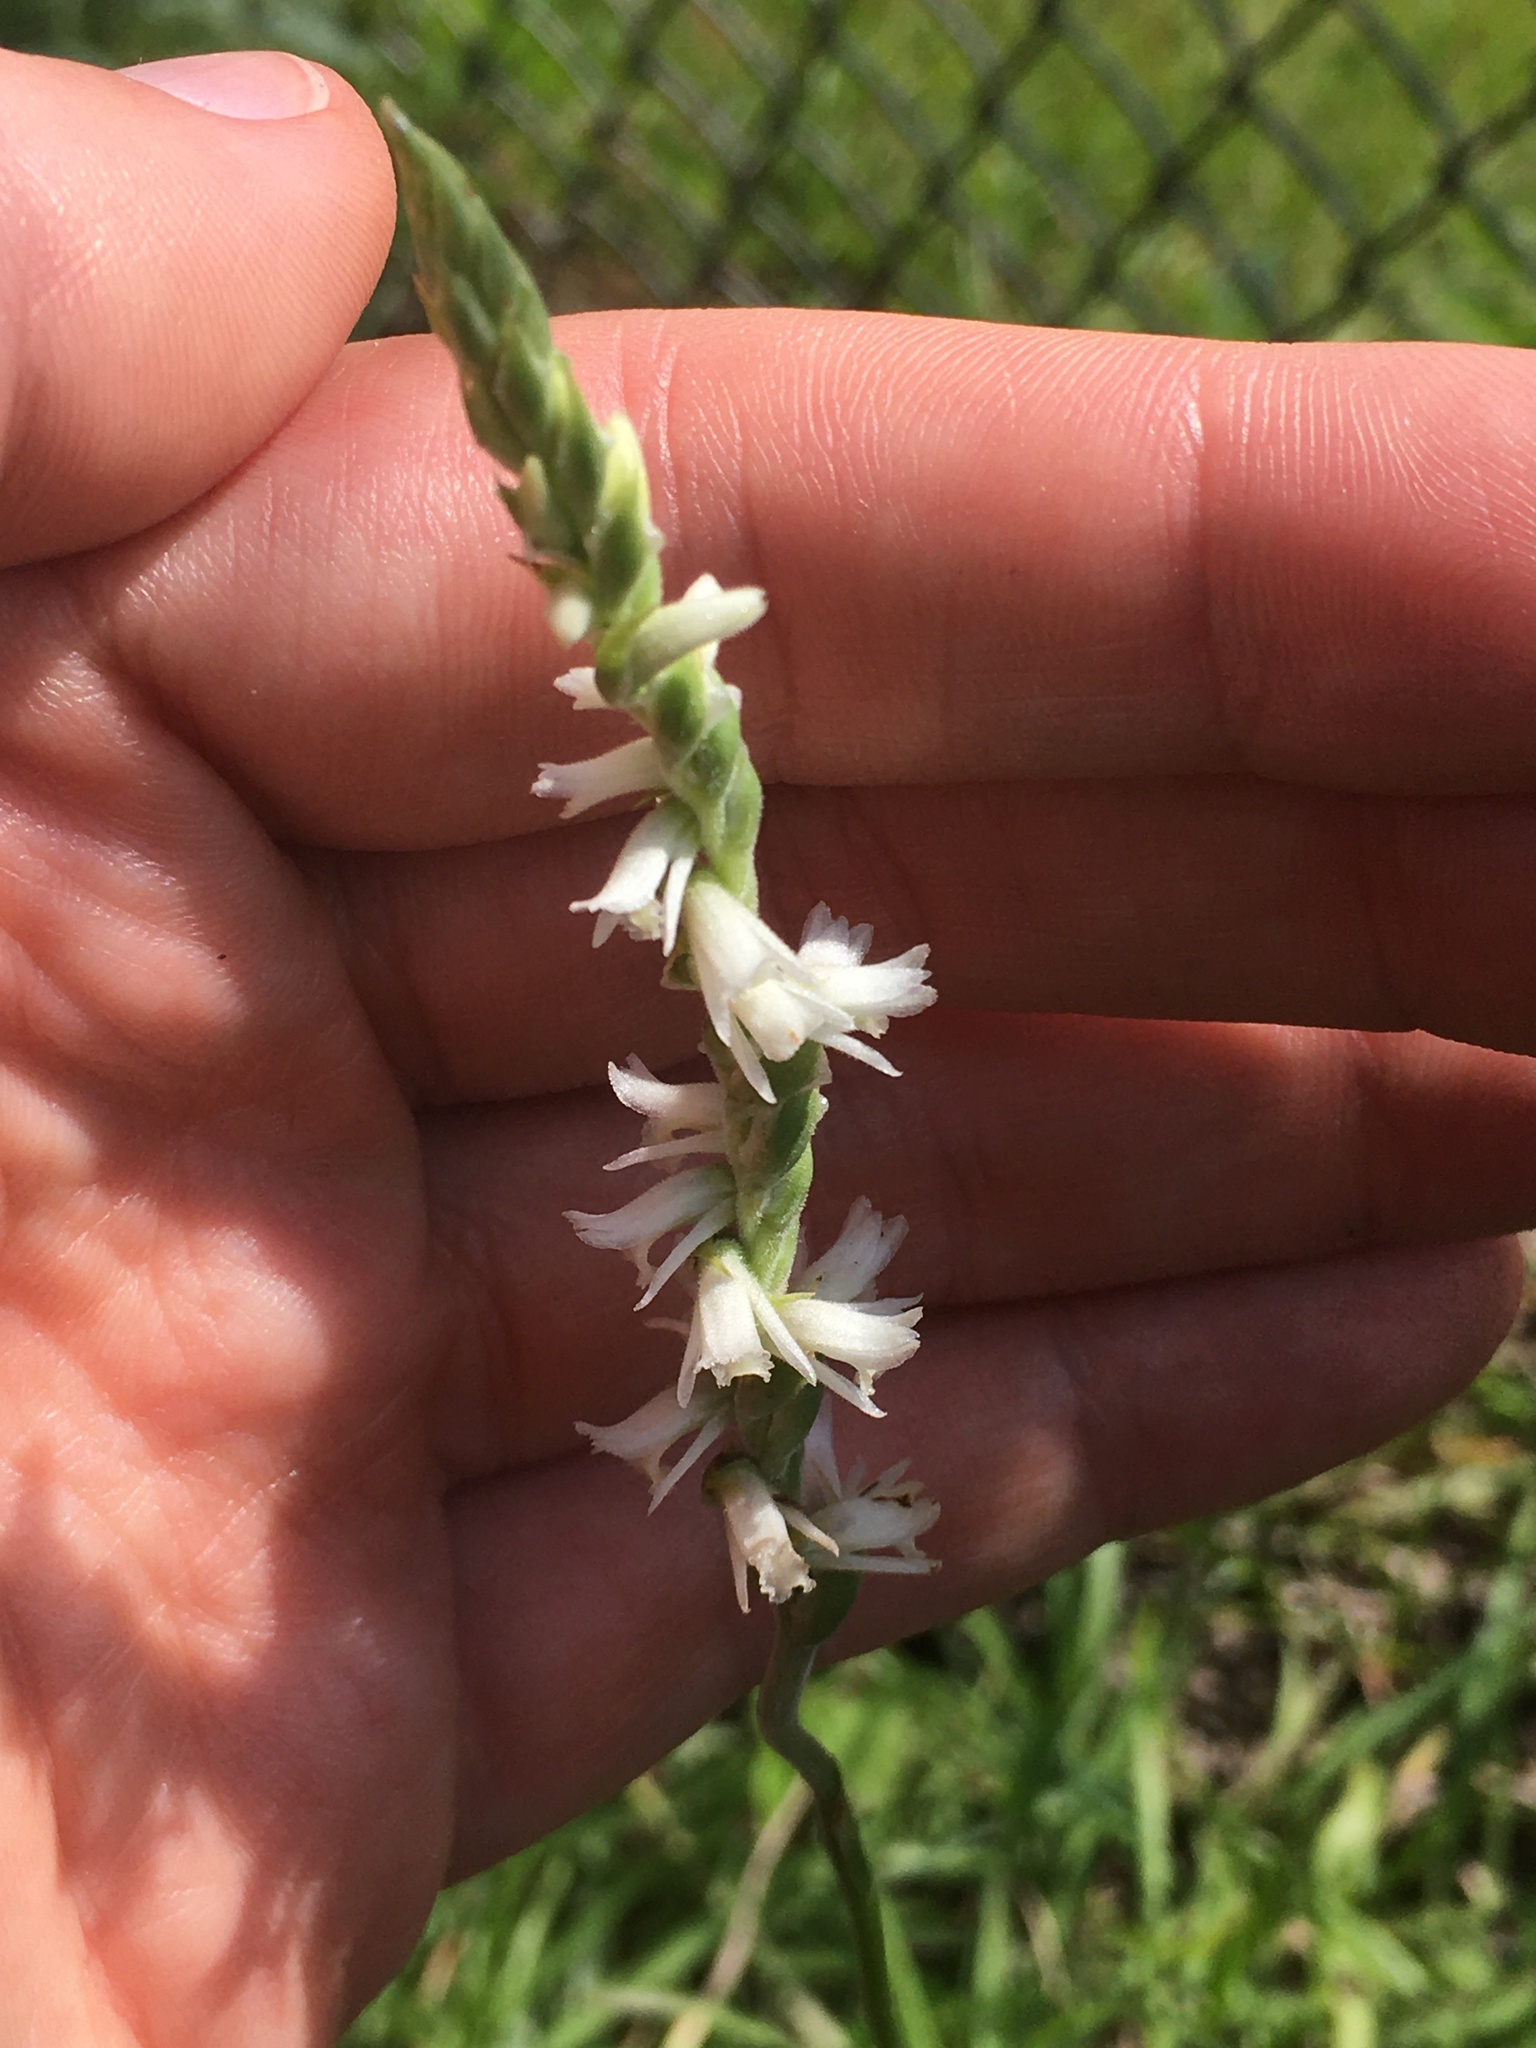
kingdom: Plantae
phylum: Tracheophyta
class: Liliopsida
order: Asparagales
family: Orchidaceae
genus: Spiranthes
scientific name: Spiranthes vernalis
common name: Spring ladies'-tresses
